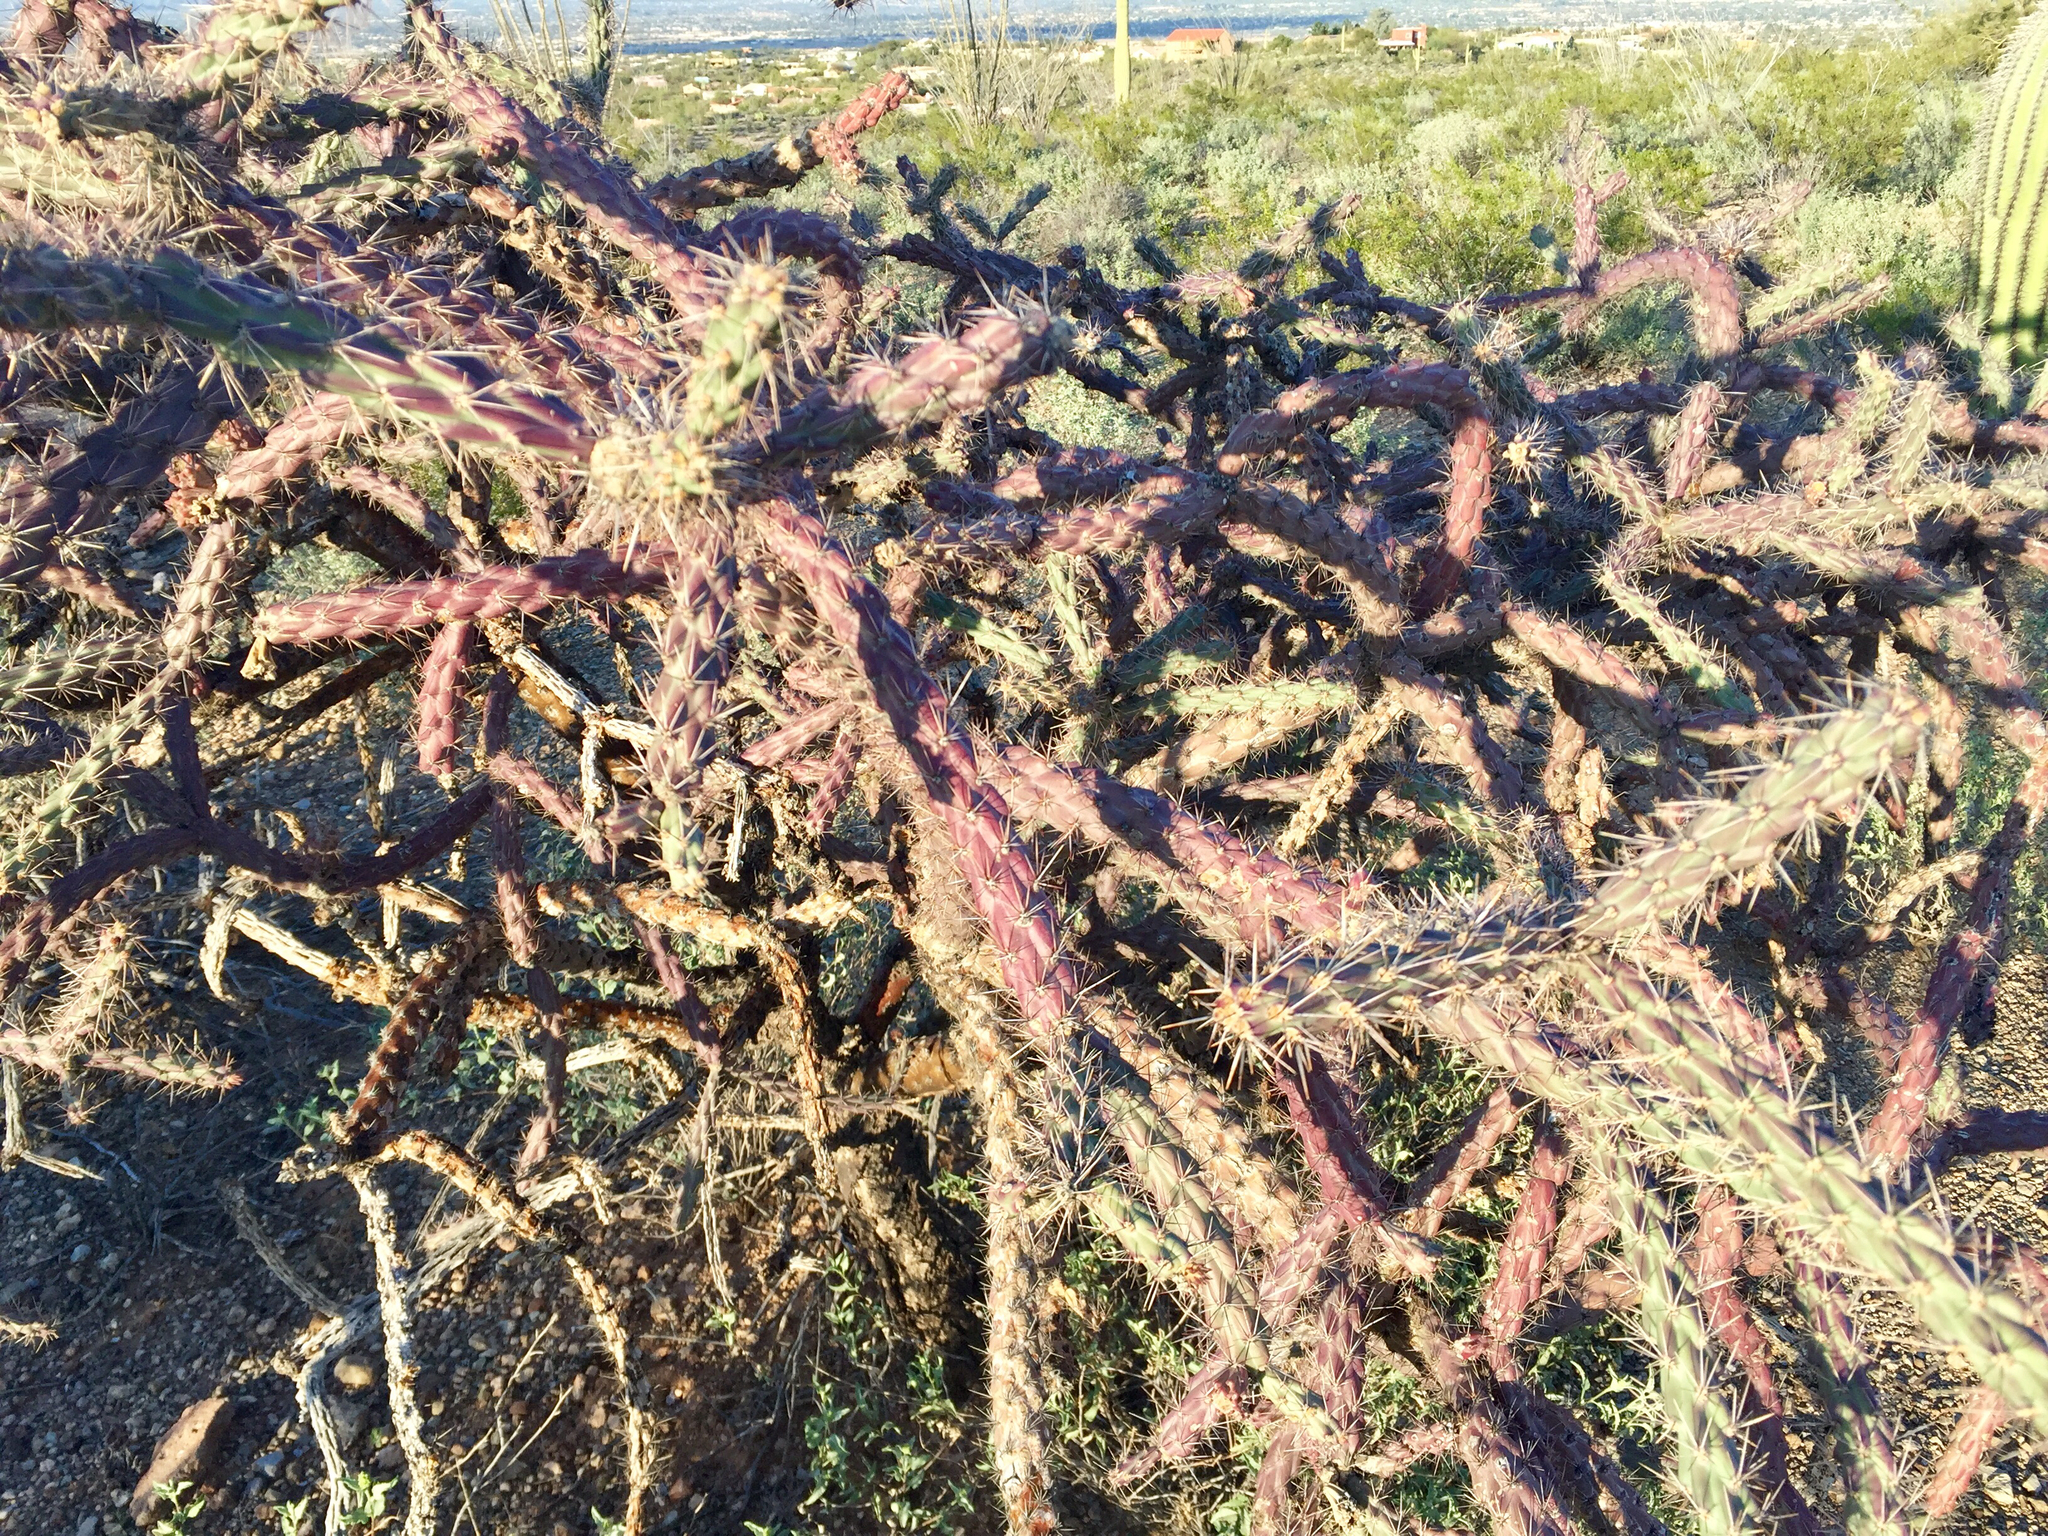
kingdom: Plantae
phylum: Tracheophyta
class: Magnoliopsida
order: Caryophyllales
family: Cactaceae
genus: Cylindropuntia
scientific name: Cylindropuntia thurberi
